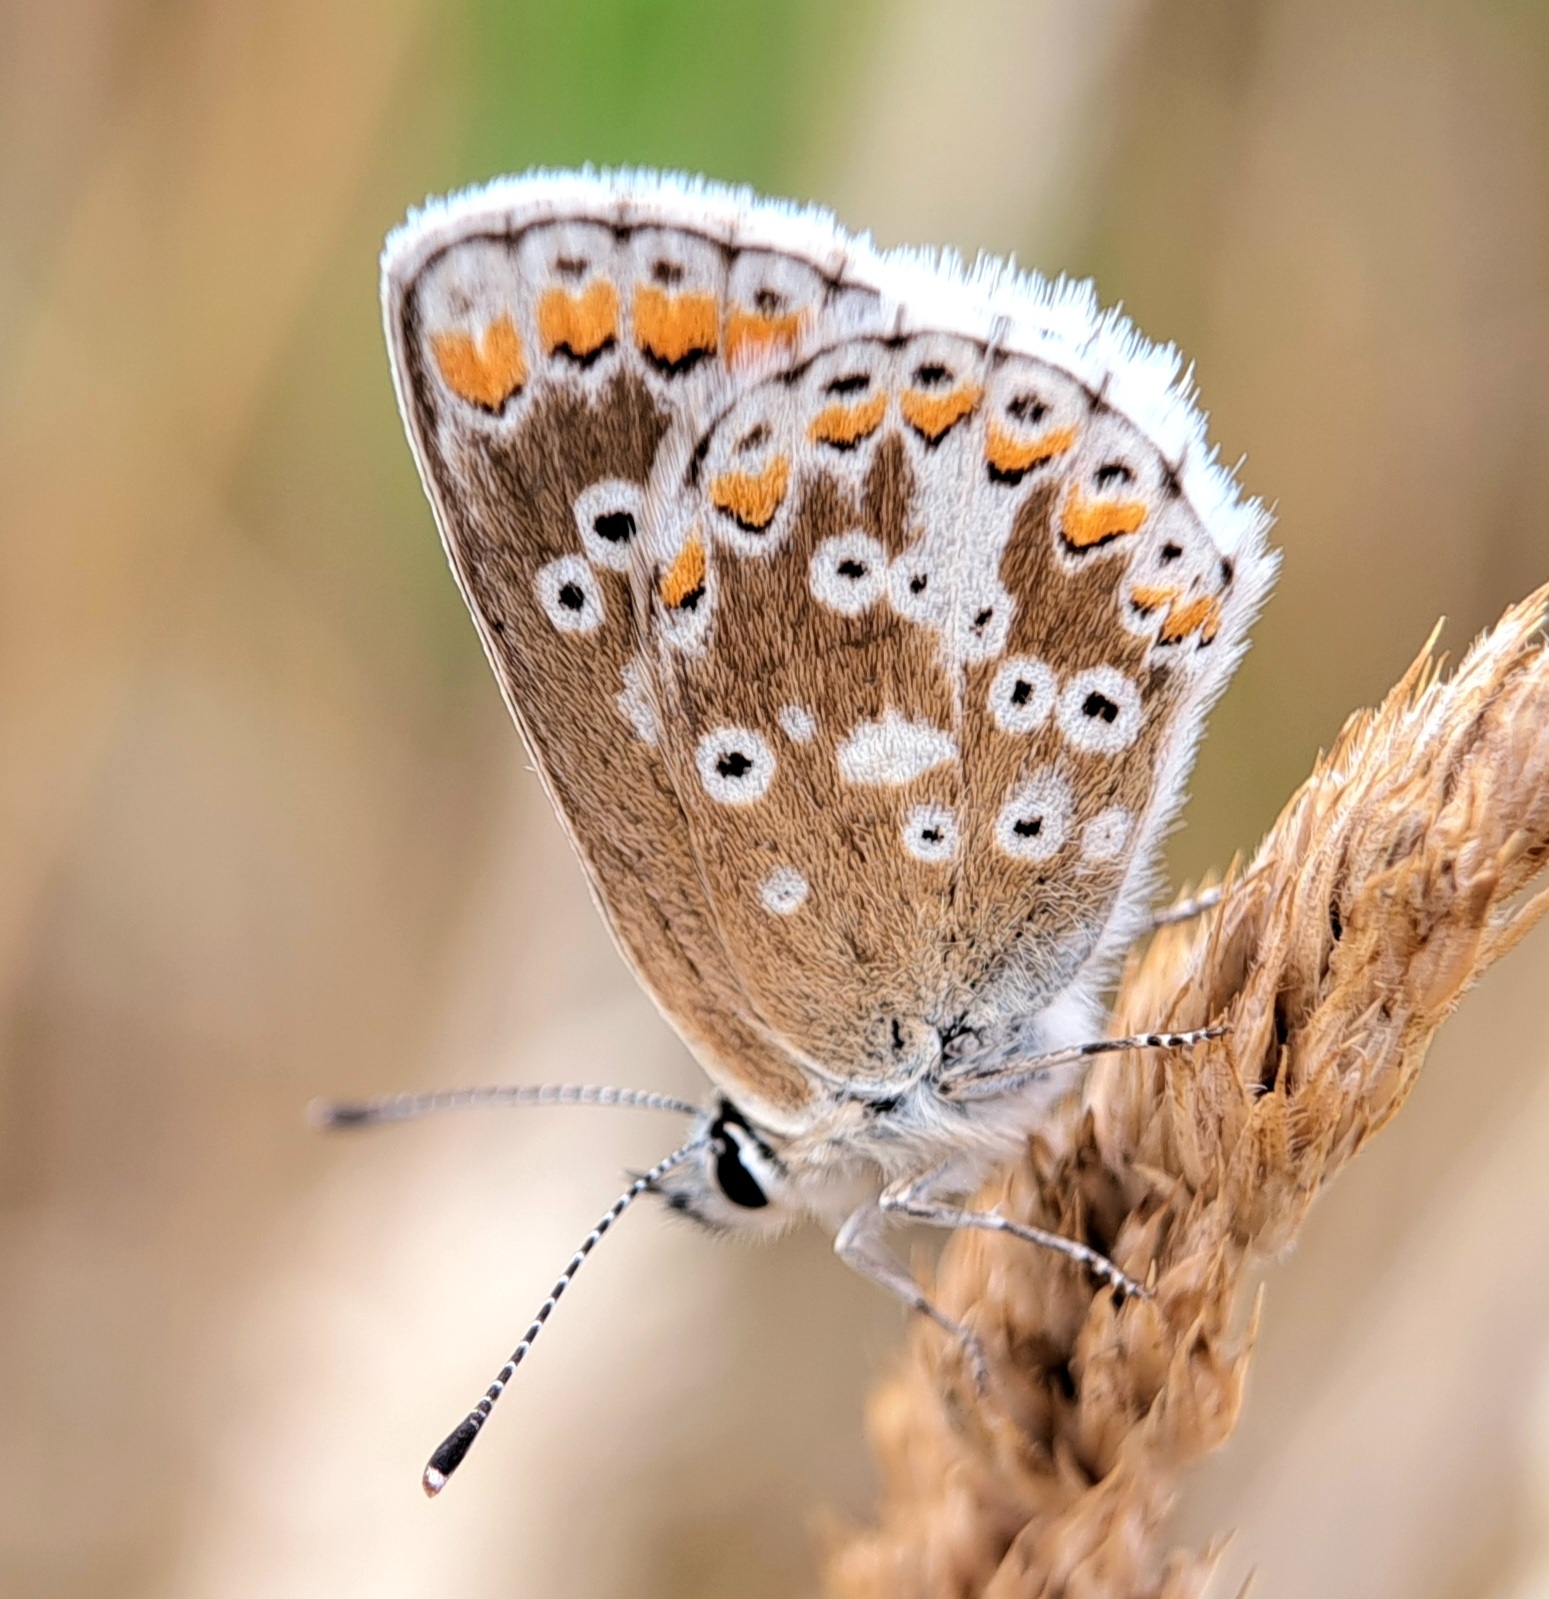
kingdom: Animalia
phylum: Arthropoda
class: Insecta
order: Lepidoptera
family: Lycaenidae
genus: Aricia
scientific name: Aricia agestis
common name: Brown argus
